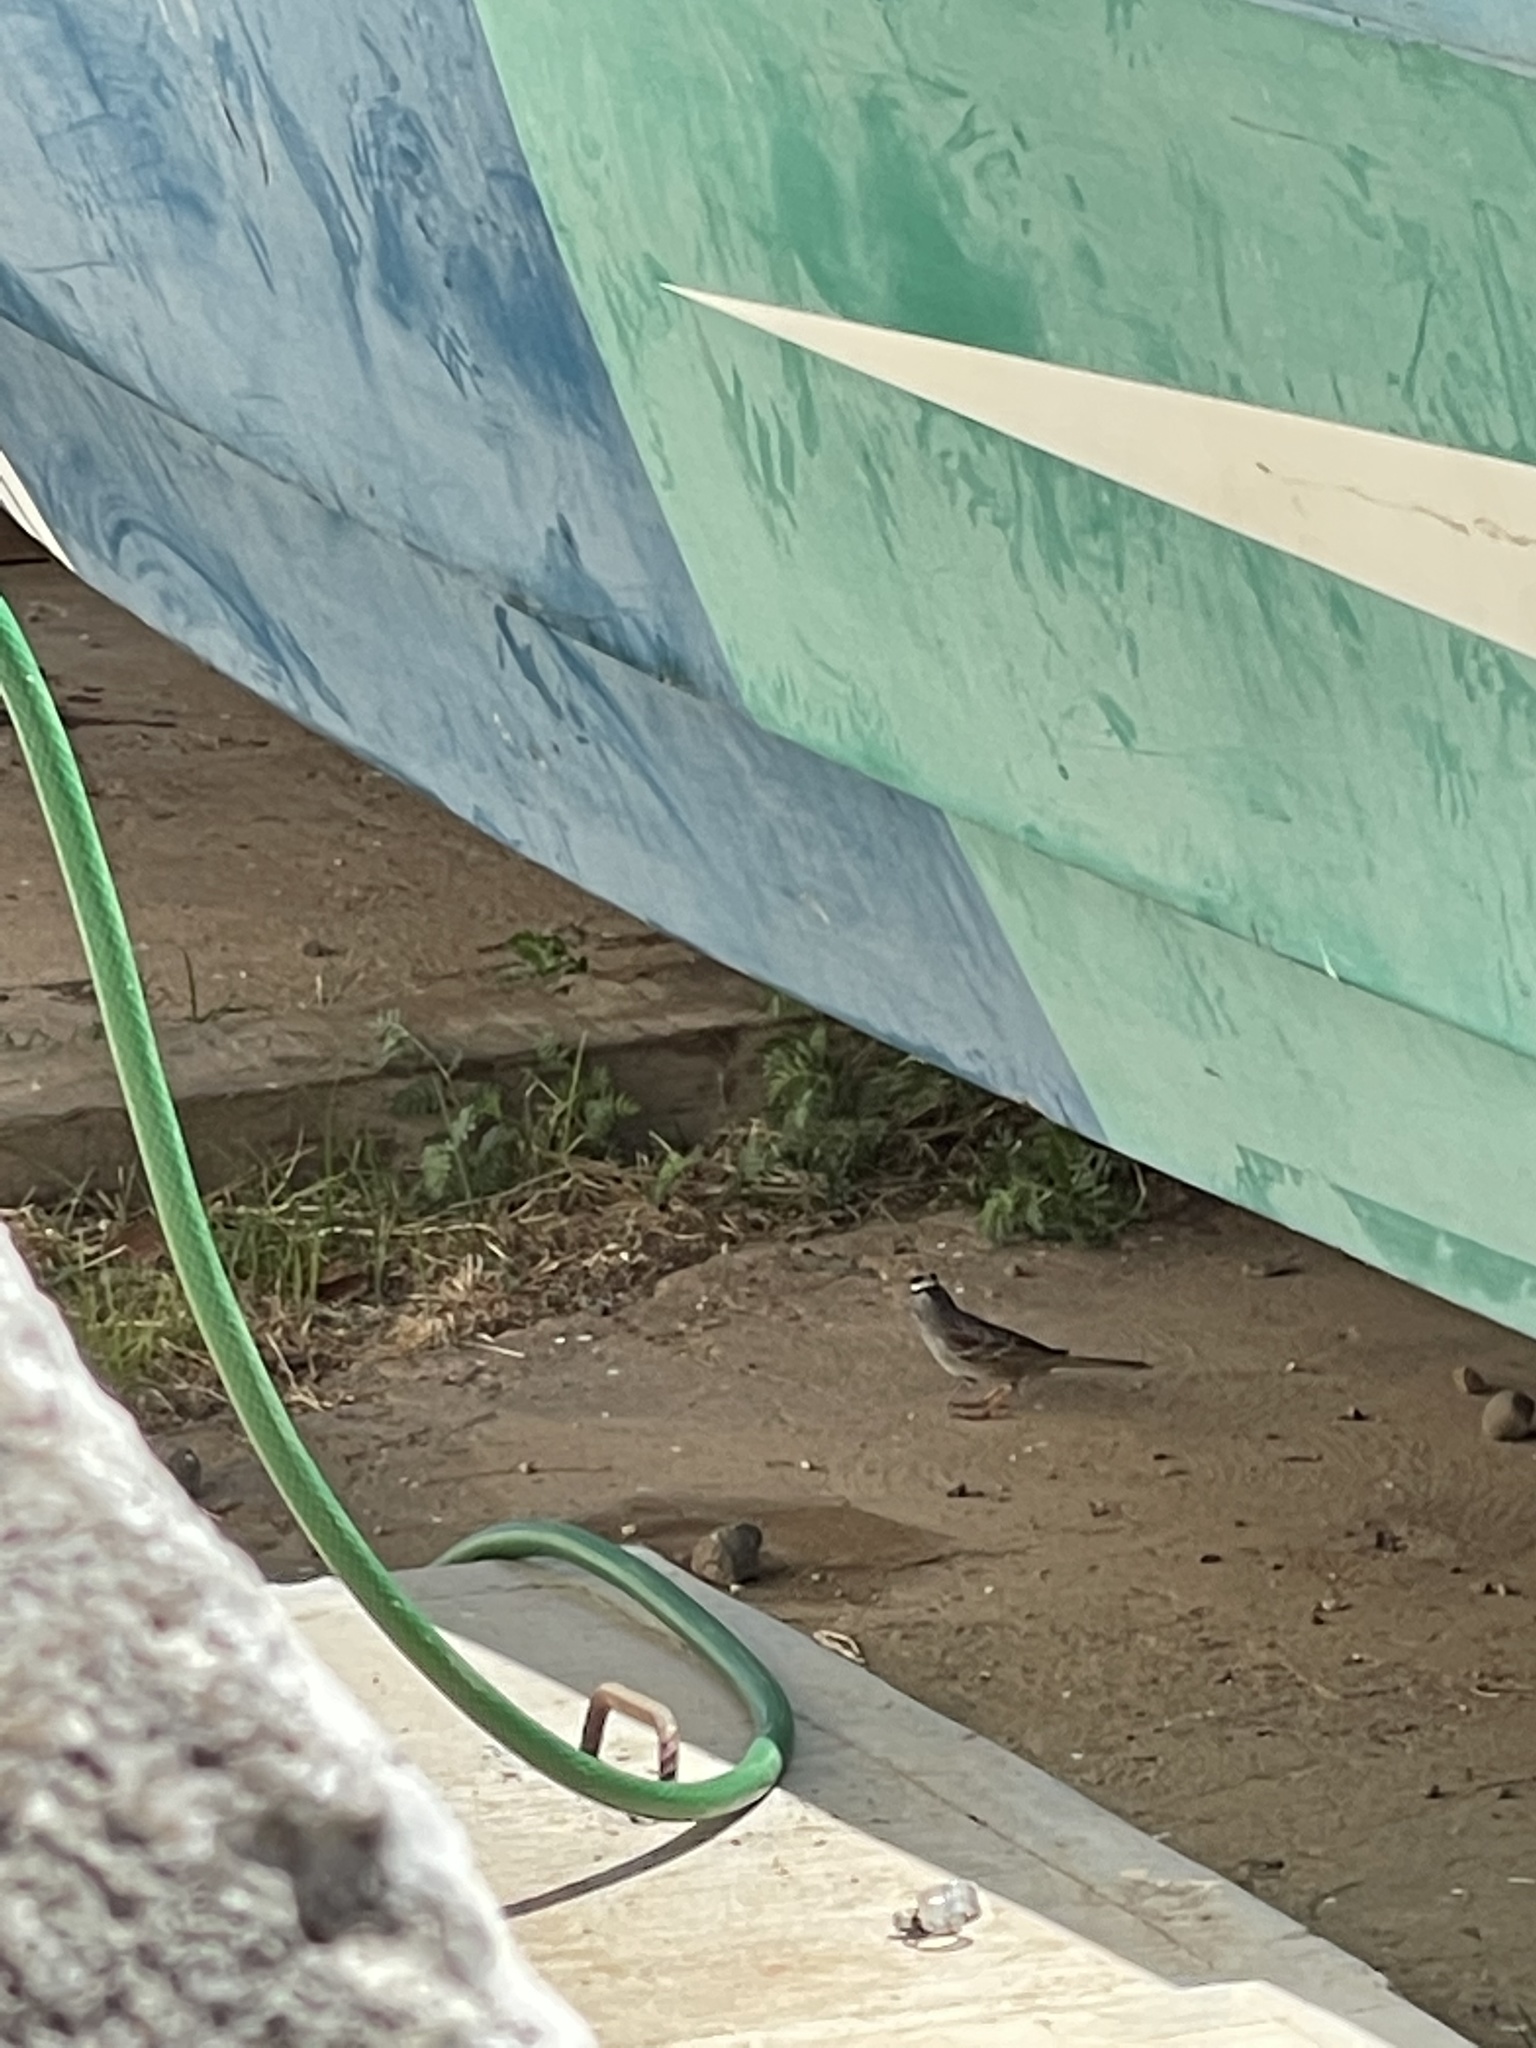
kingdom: Animalia
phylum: Chordata
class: Aves
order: Passeriformes
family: Passerellidae
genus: Zonotrichia
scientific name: Zonotrichia leucophrys
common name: White-crowned sparrow
